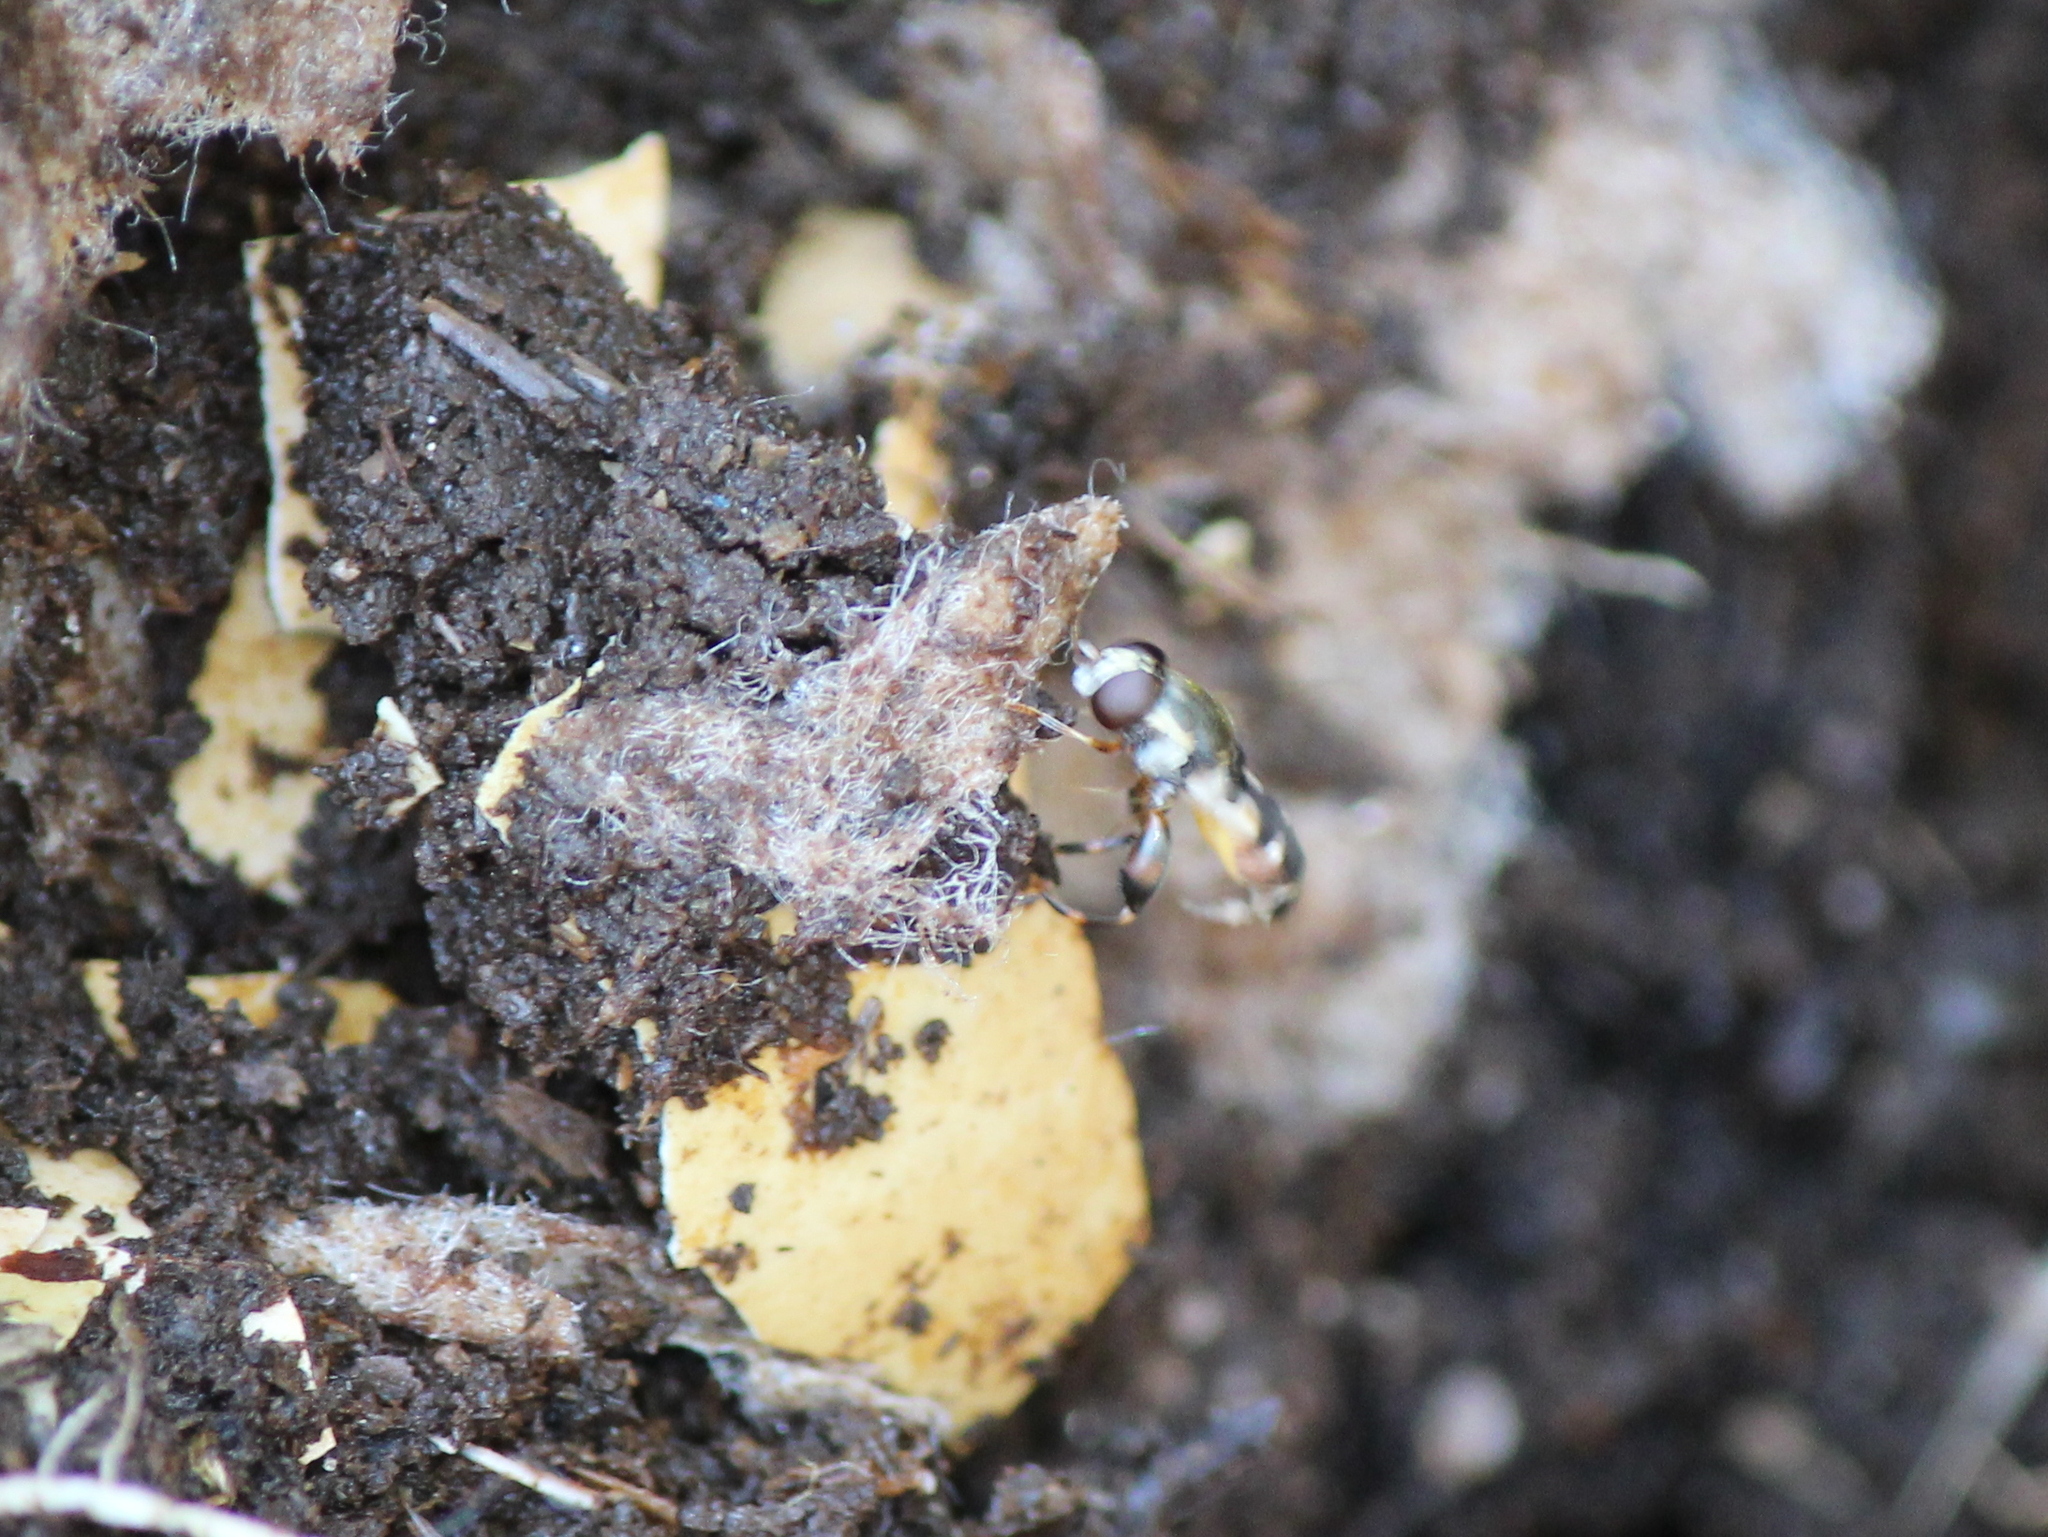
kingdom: Animalia
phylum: Arthropoda
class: Insecta
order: Diptera
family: Syrphidae
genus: Syritta
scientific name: Syritta pipiens
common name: Hover fly
